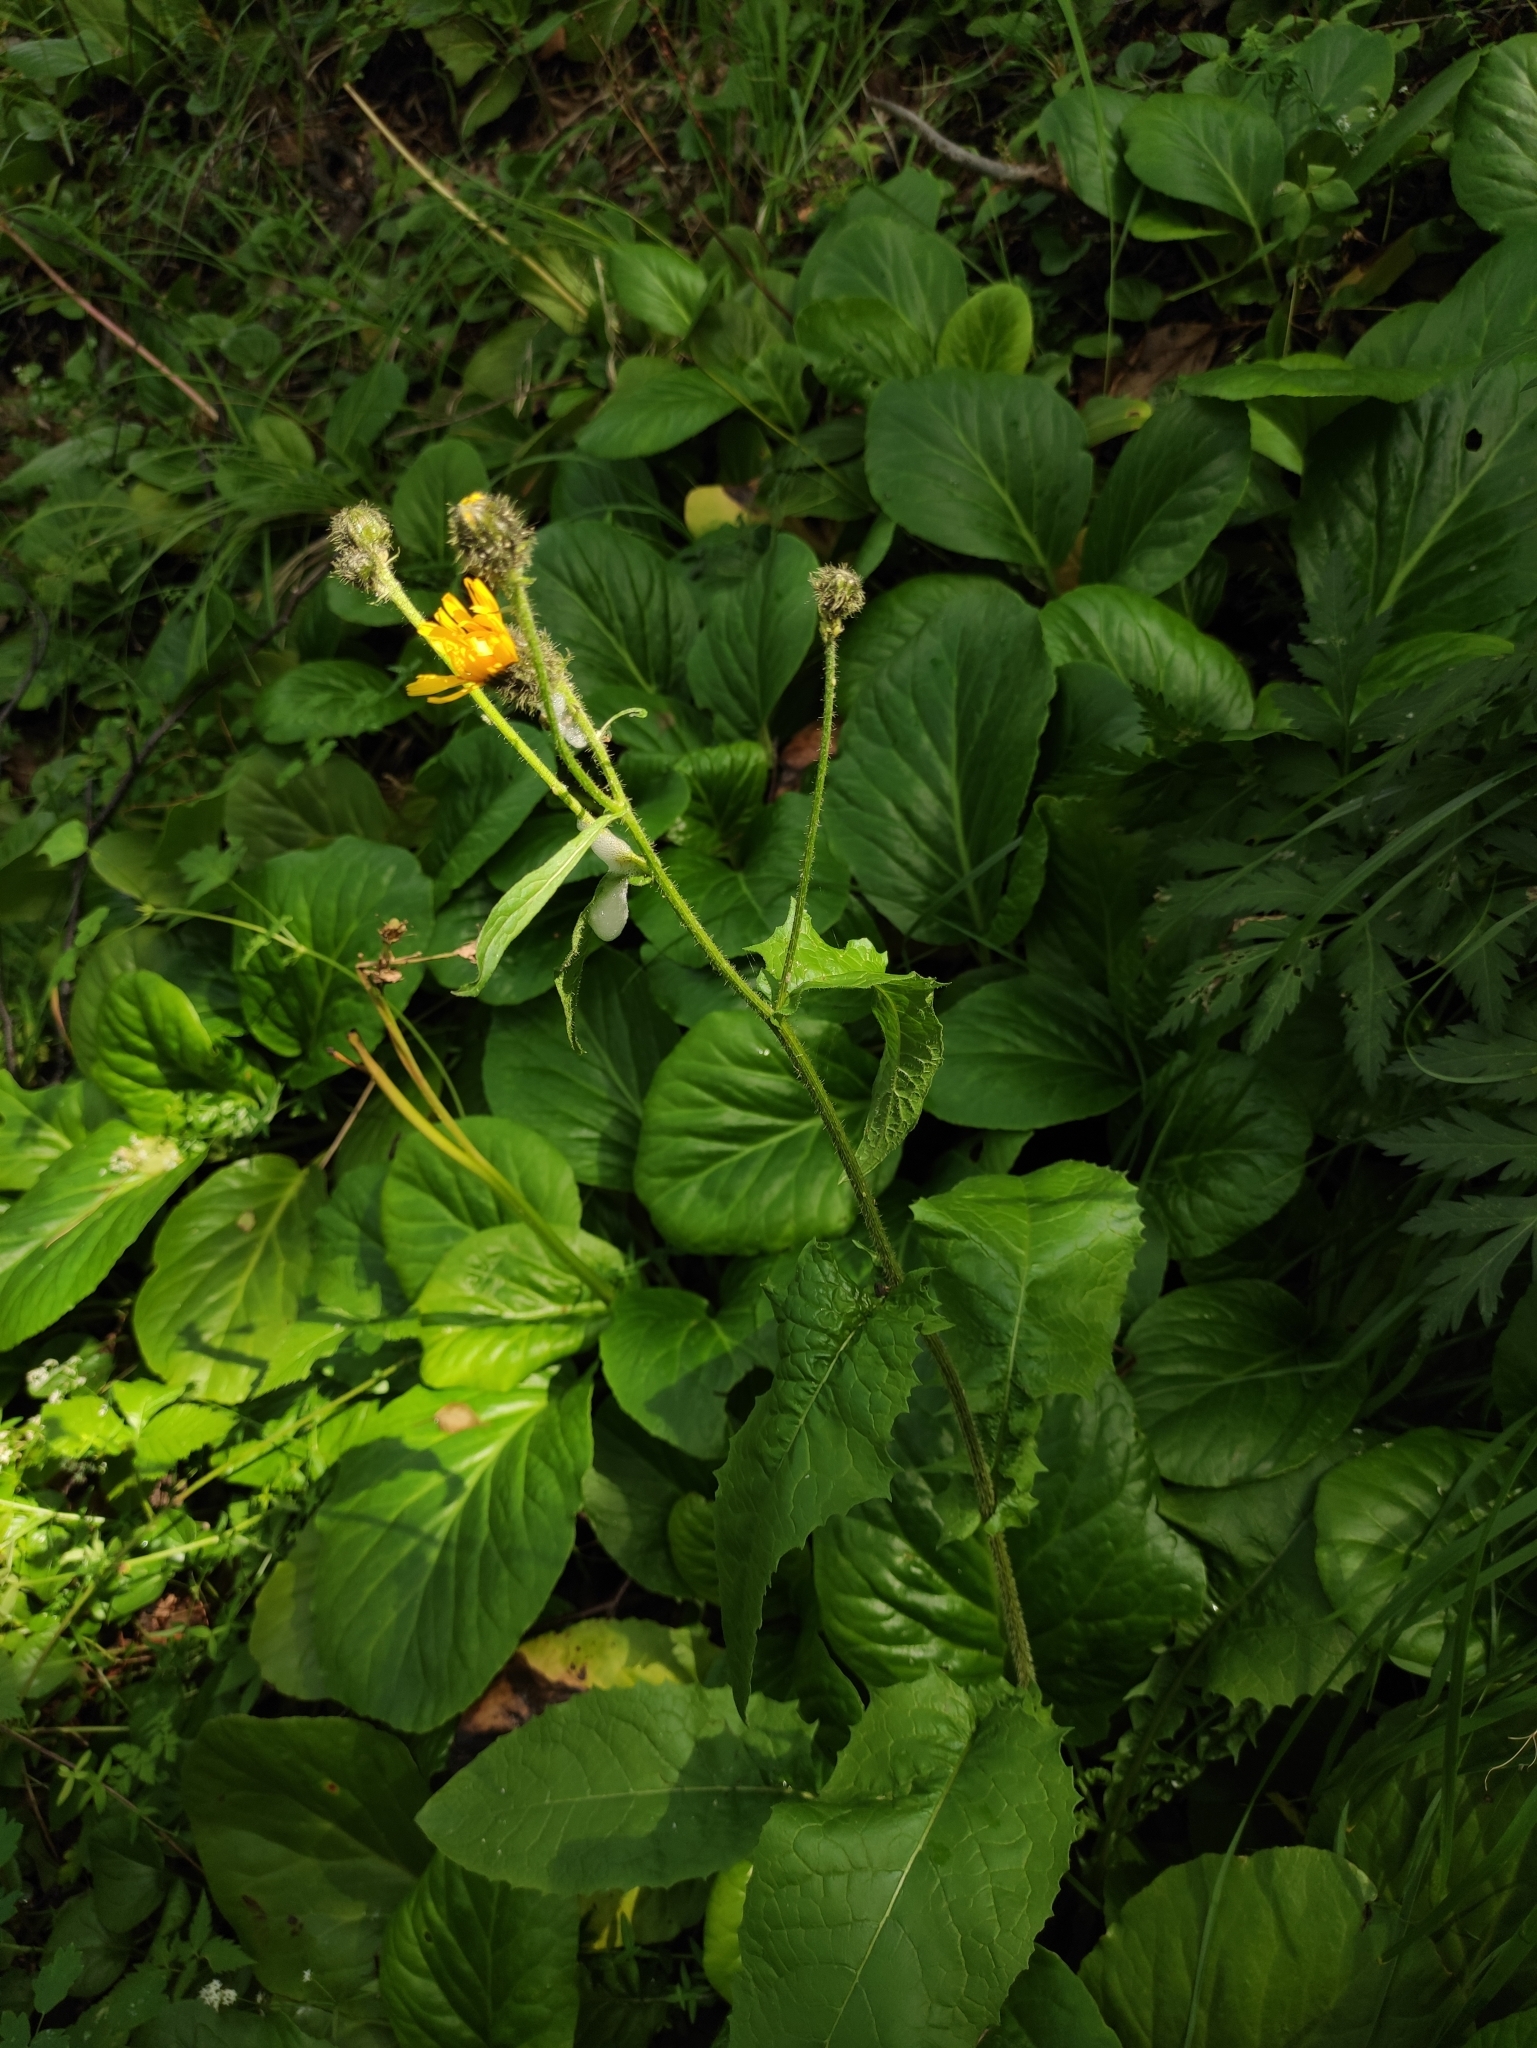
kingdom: Plantae
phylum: Tracheophyta
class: Magnoliopsida
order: Asterales
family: Asteraceae
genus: Crepis
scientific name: Crepis sibirica
